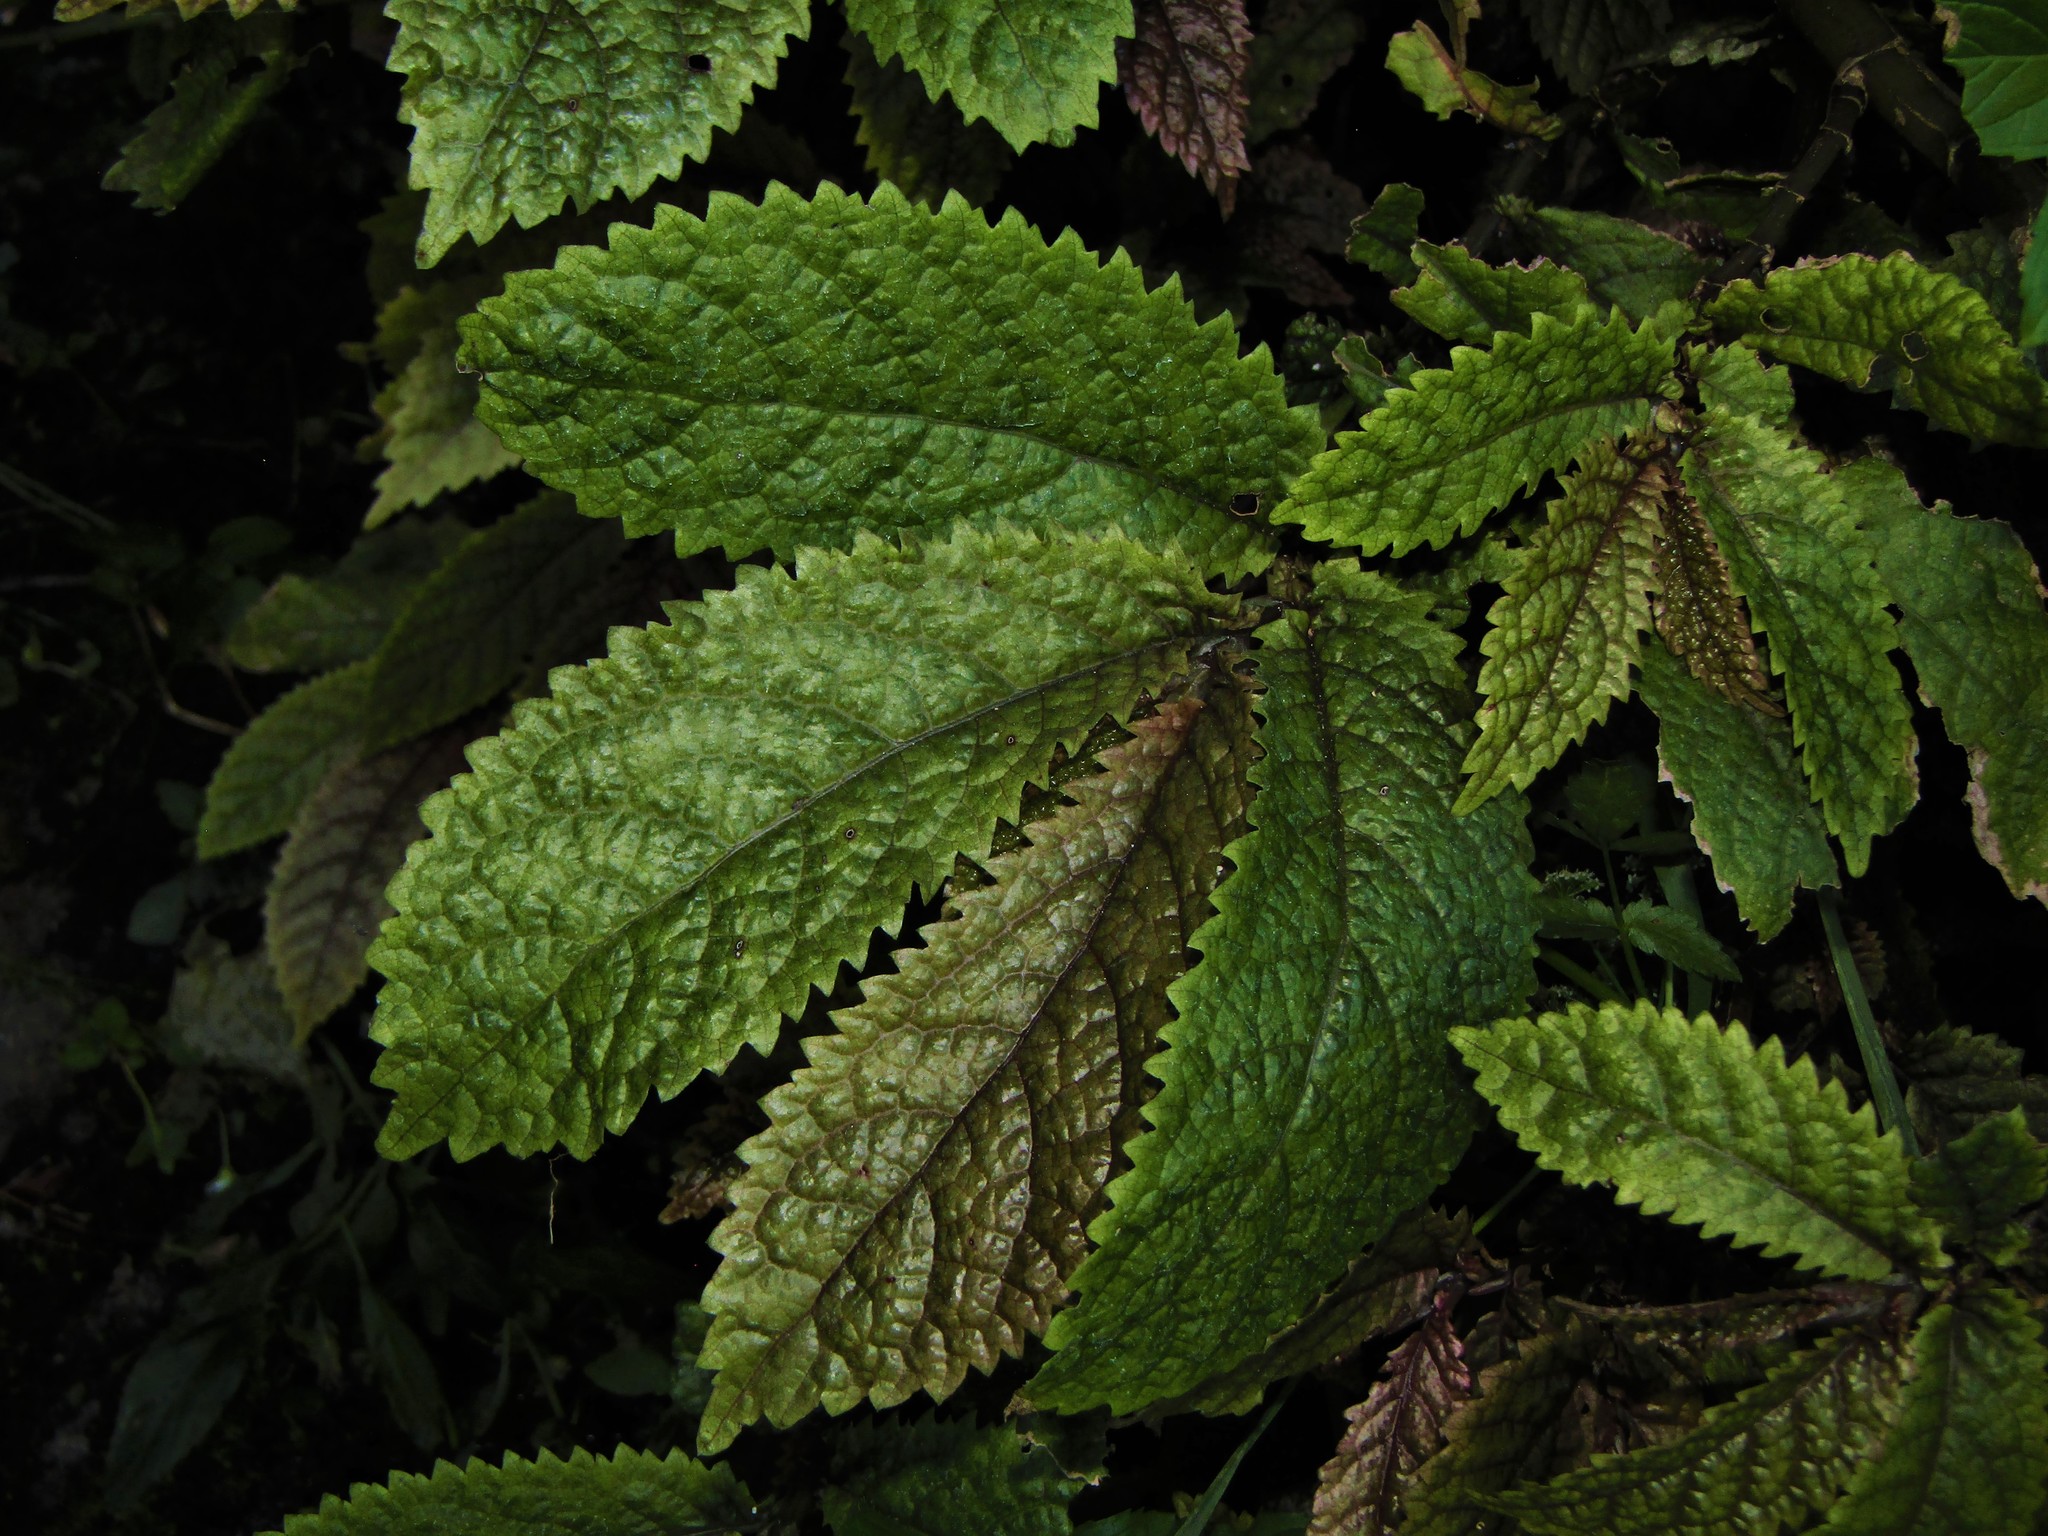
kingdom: Plantae
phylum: Tracheophyta
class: Magnoliopsida
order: Rosales
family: Urticaceae
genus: Elatostema
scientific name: Elatostema rugosum
